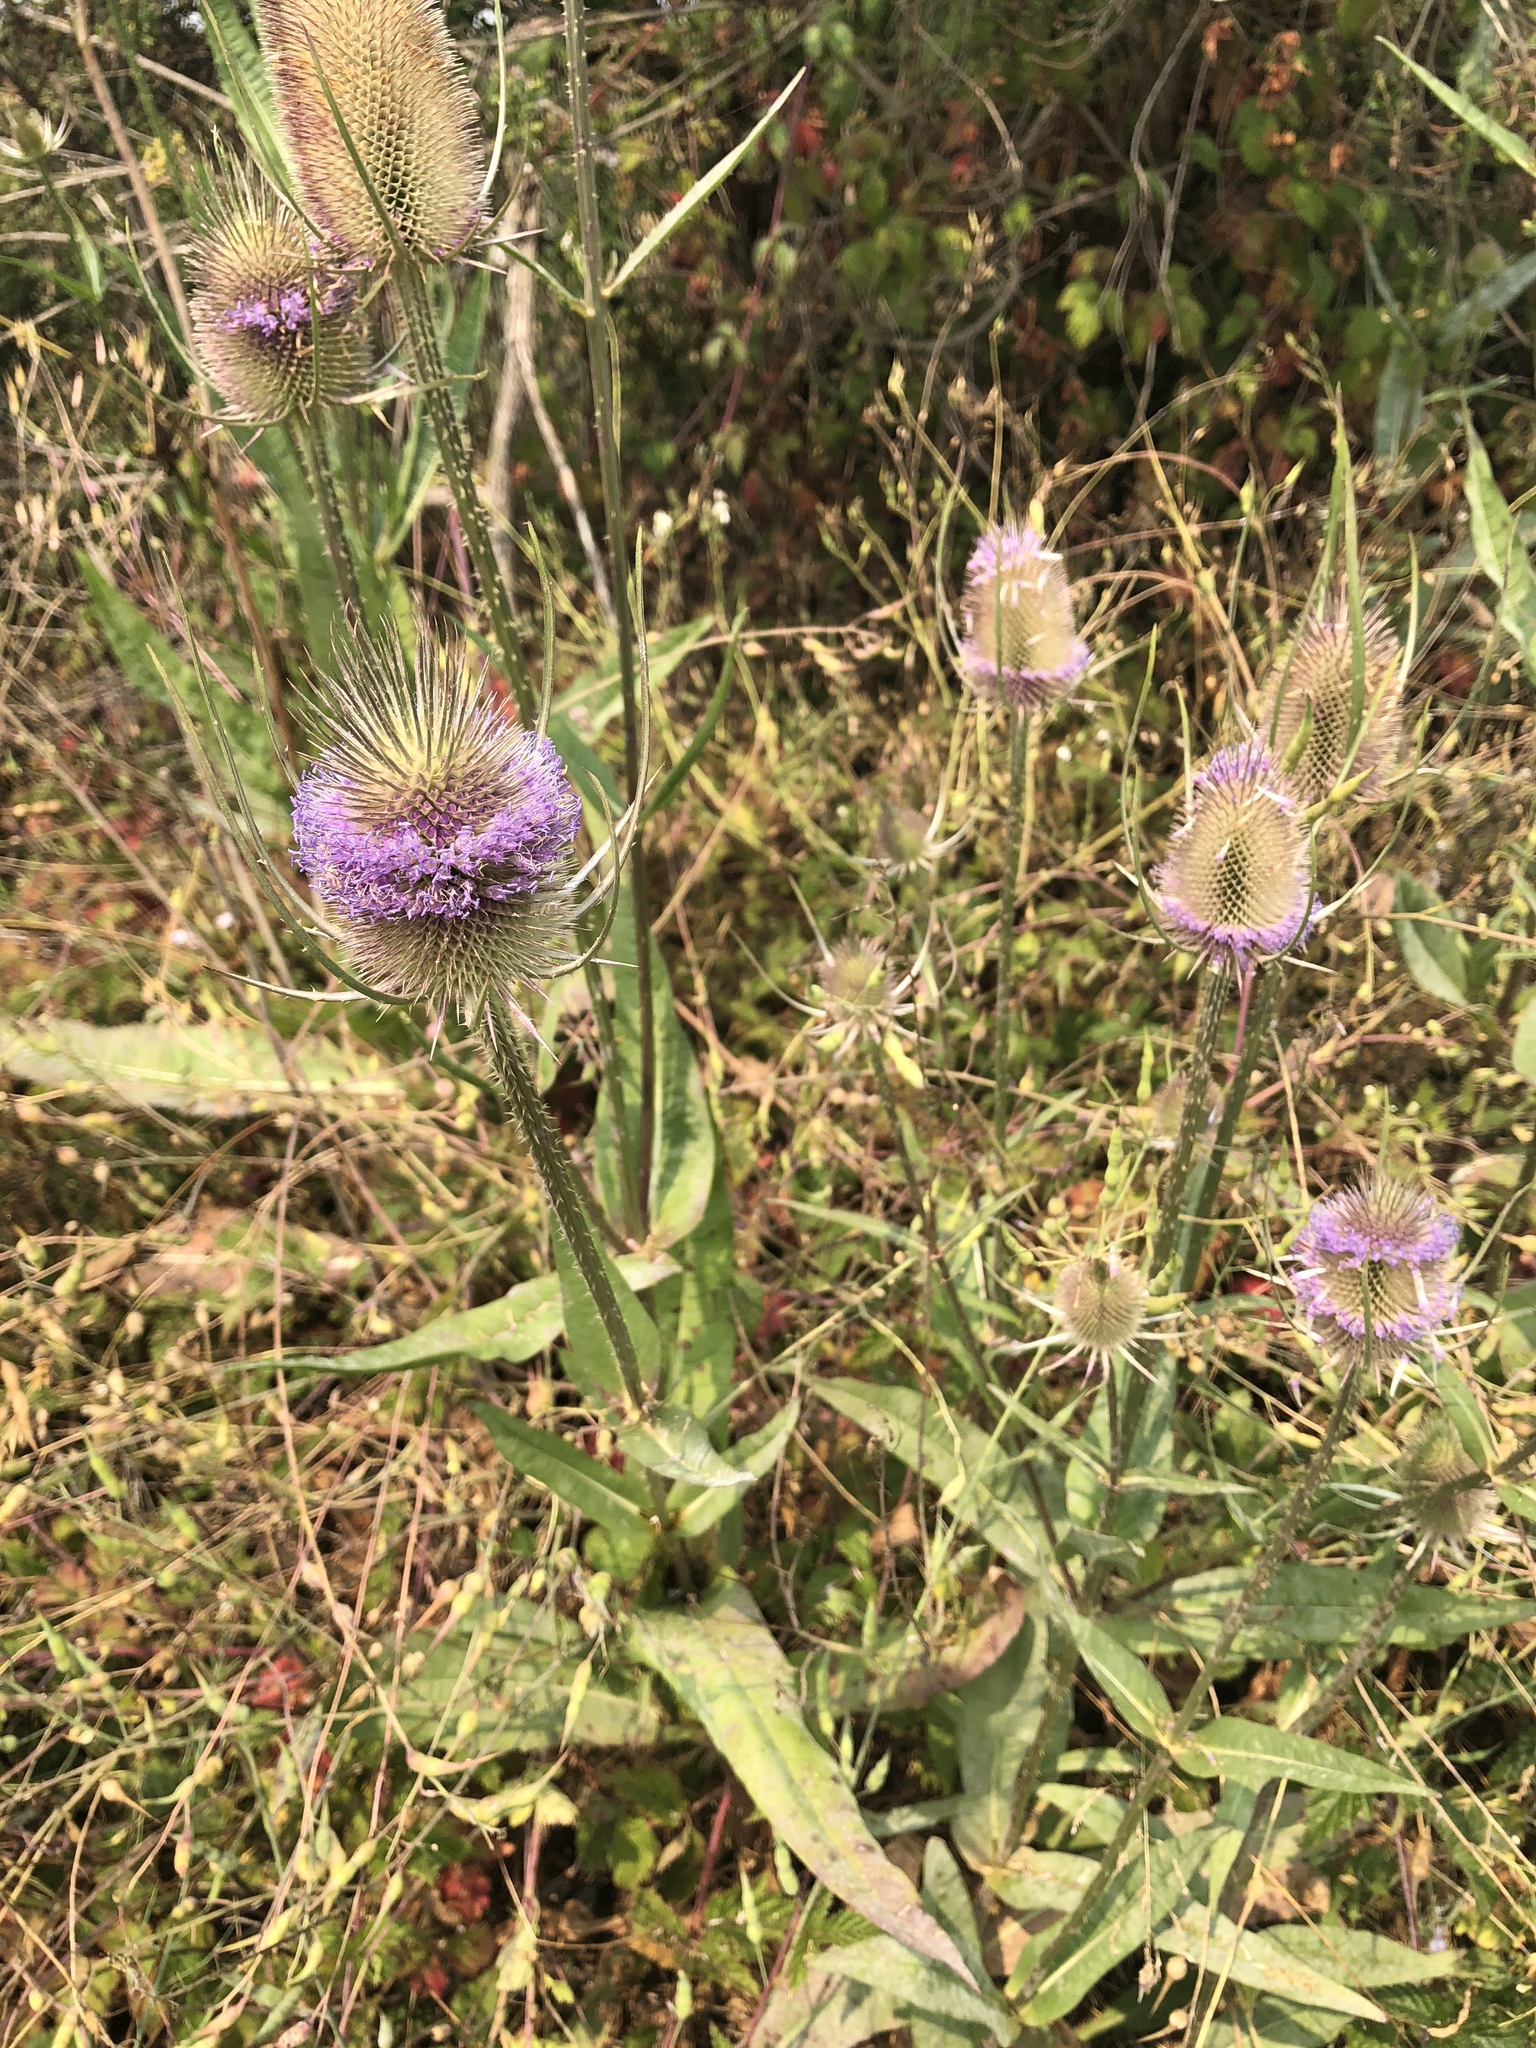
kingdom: Plantae
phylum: Tracheophyta
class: Magnoliopsida
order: Dipsacales
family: Caprifoliaceae
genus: Dipsacus
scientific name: Dipsacus fullonum
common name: Teasel
